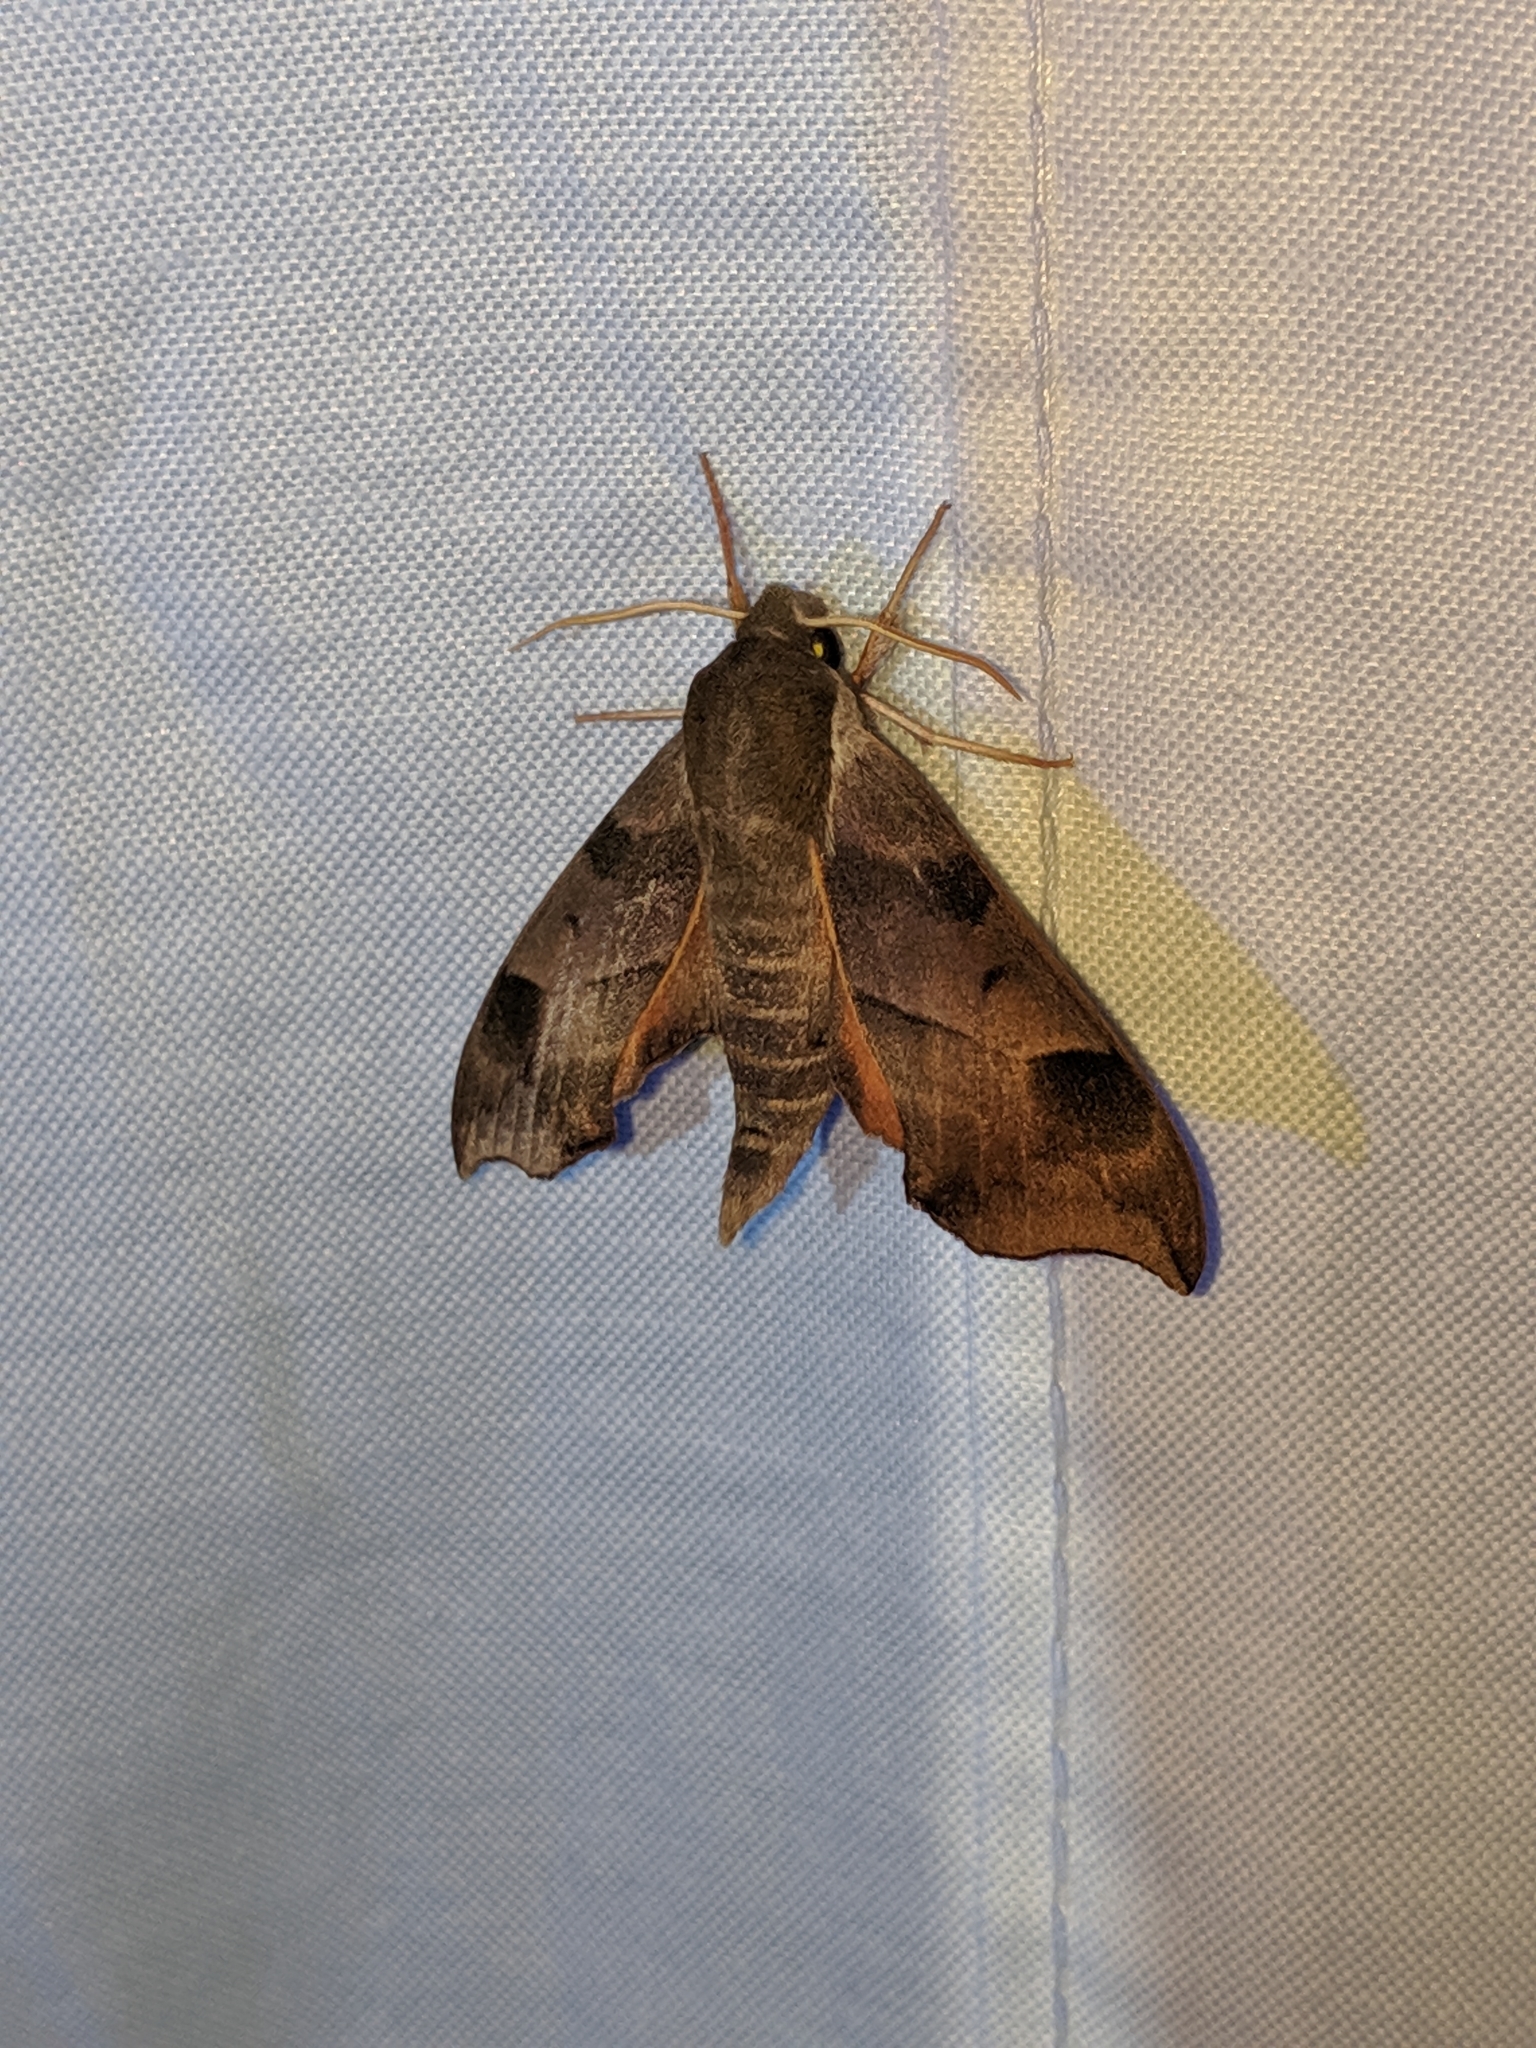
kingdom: Animalia
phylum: Arthropoda
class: Insecta
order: Lepidoptera
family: Sphingidae
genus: Darapsa
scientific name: Darapsa myron
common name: Hog sphinx
